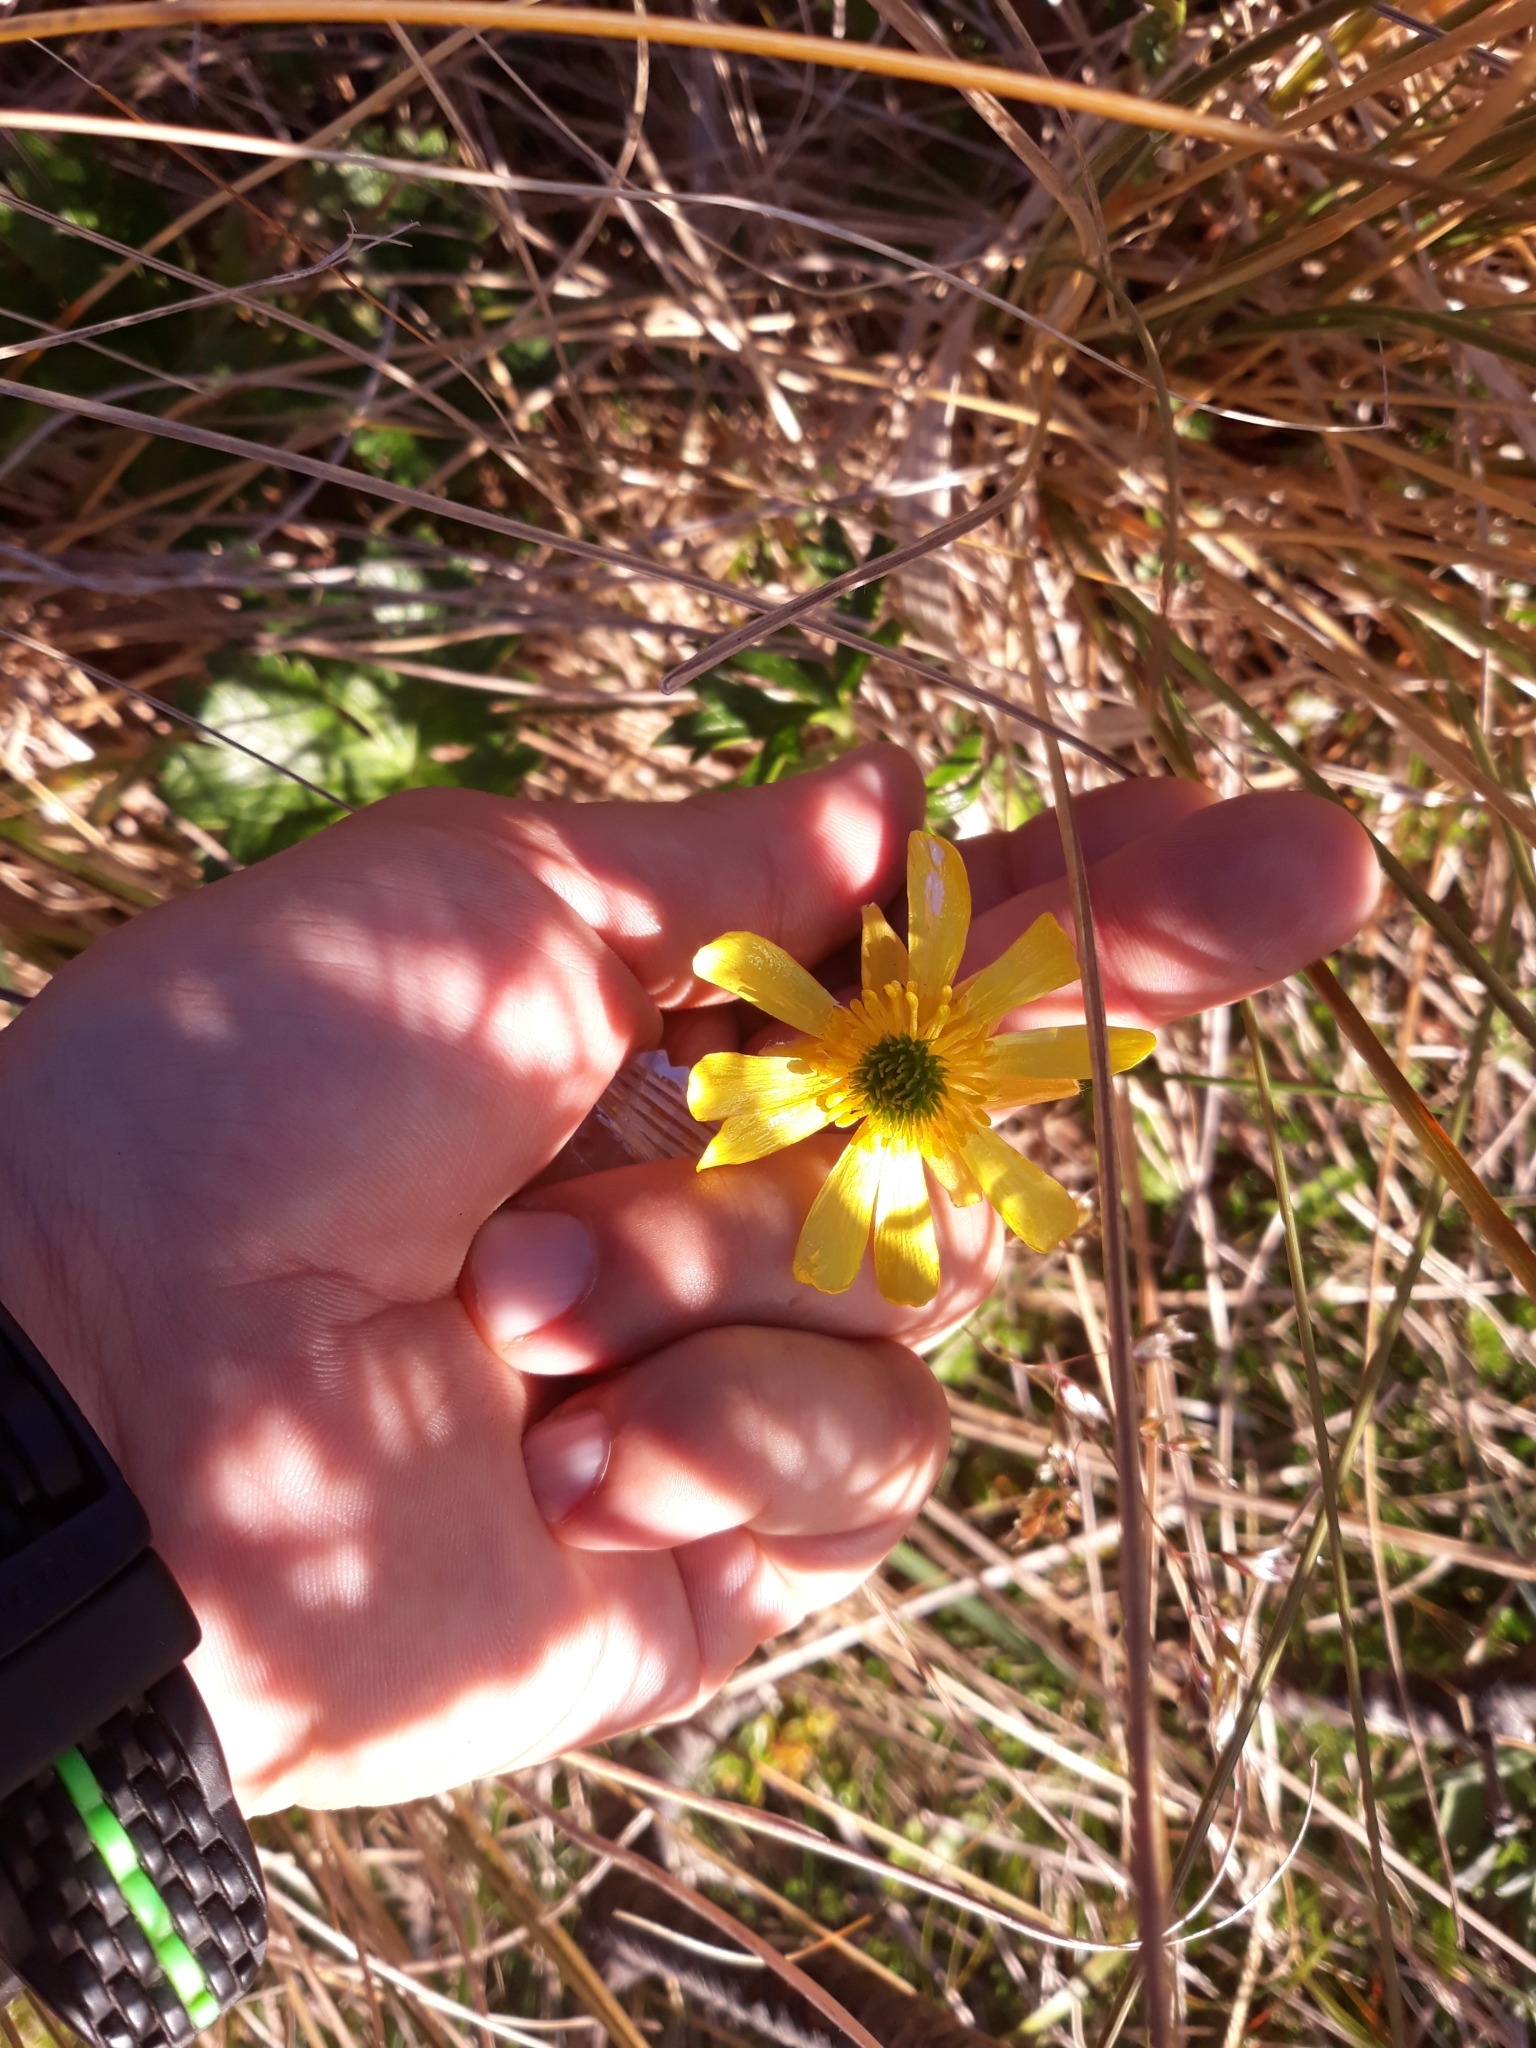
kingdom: Plantae
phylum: Tracheophyta
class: Magnoliopsida
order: Ranunculales
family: Ranunculaceae
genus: Ranunculus
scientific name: Ranunculus nivicola
